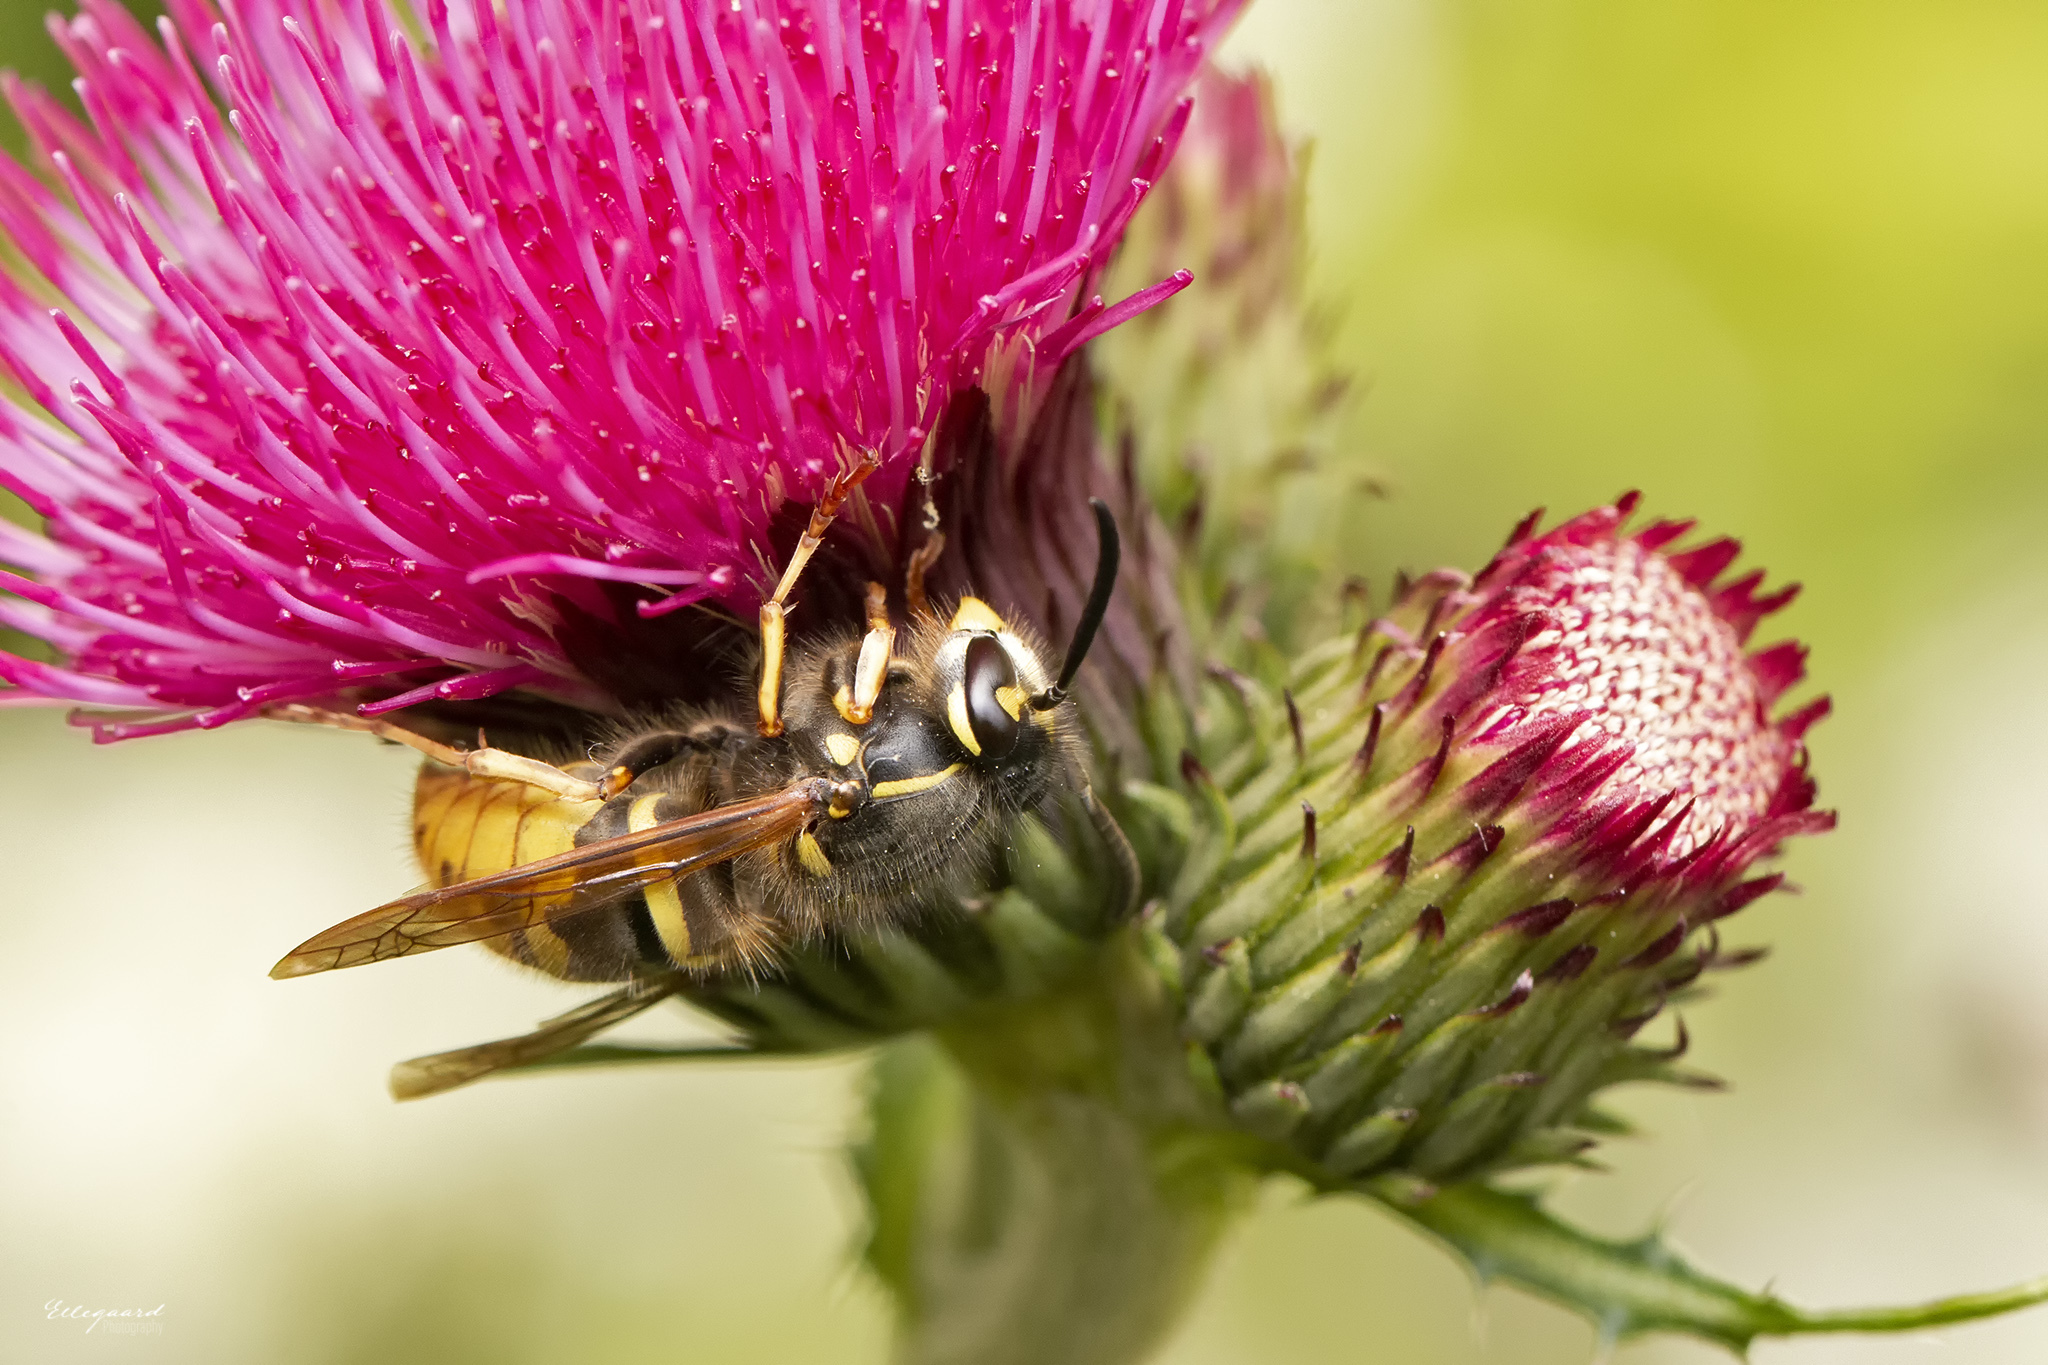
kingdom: Animalia
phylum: Arthropoda
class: Insecta
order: Hymenoptera
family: Vespidae
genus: Vespula
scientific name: Vespula vulgaris
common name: Common wasp
